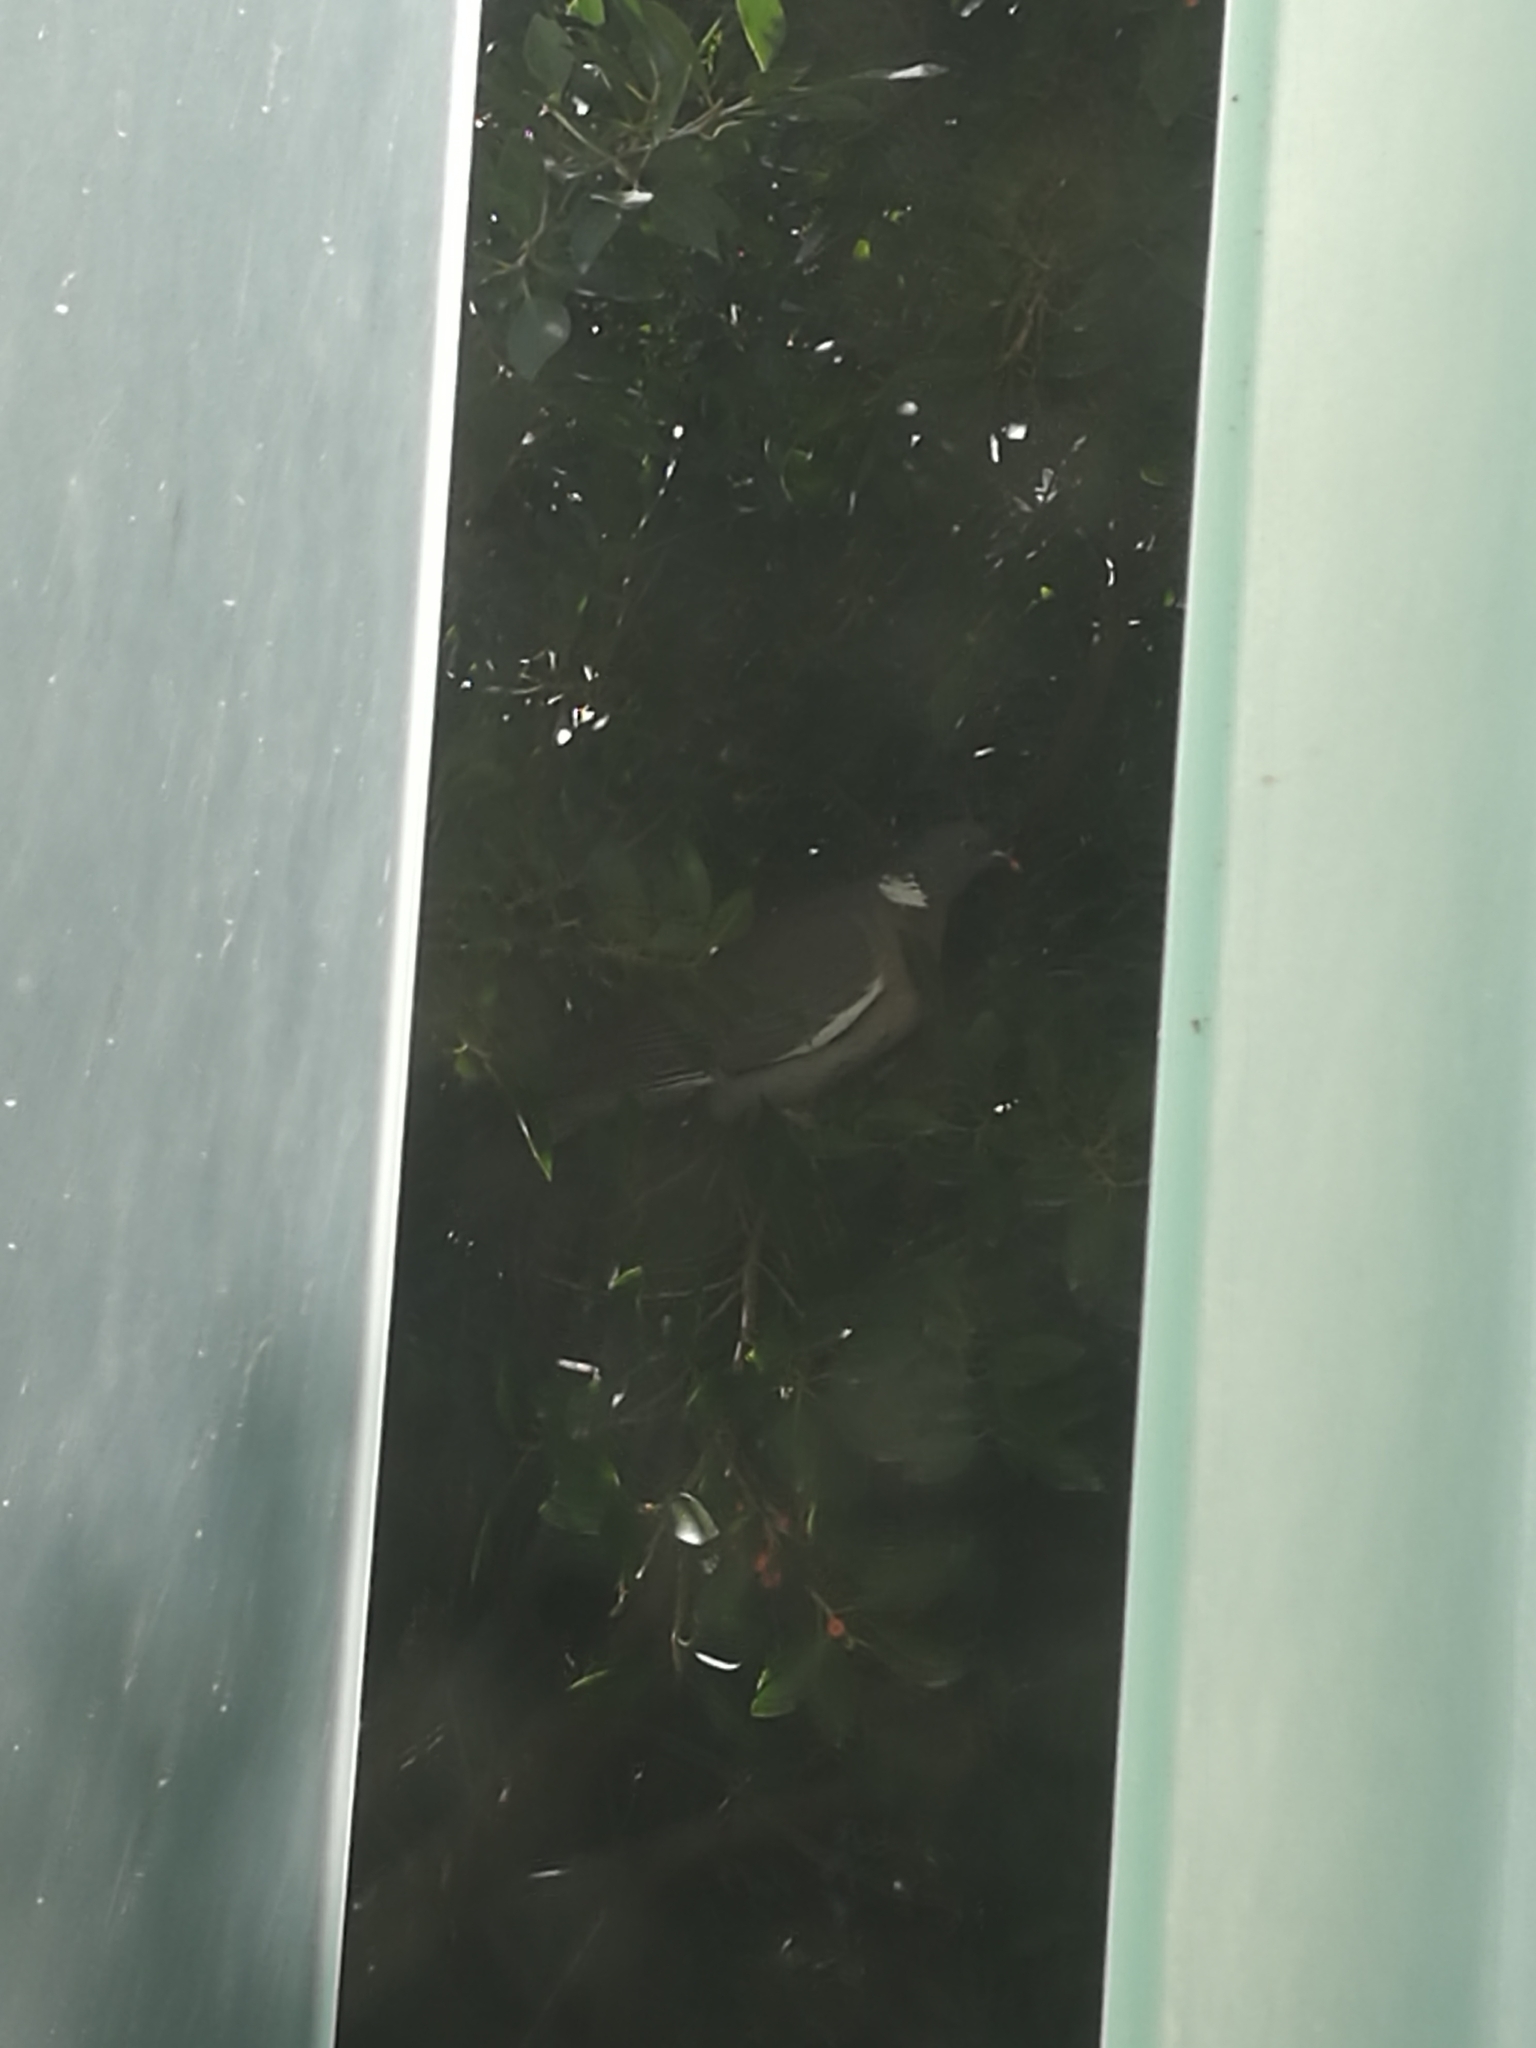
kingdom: Animalia
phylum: Chordata
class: Aves
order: Columbiformes
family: Columbidae
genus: Columba
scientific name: Columba palumbus
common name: Common wood pigeon
